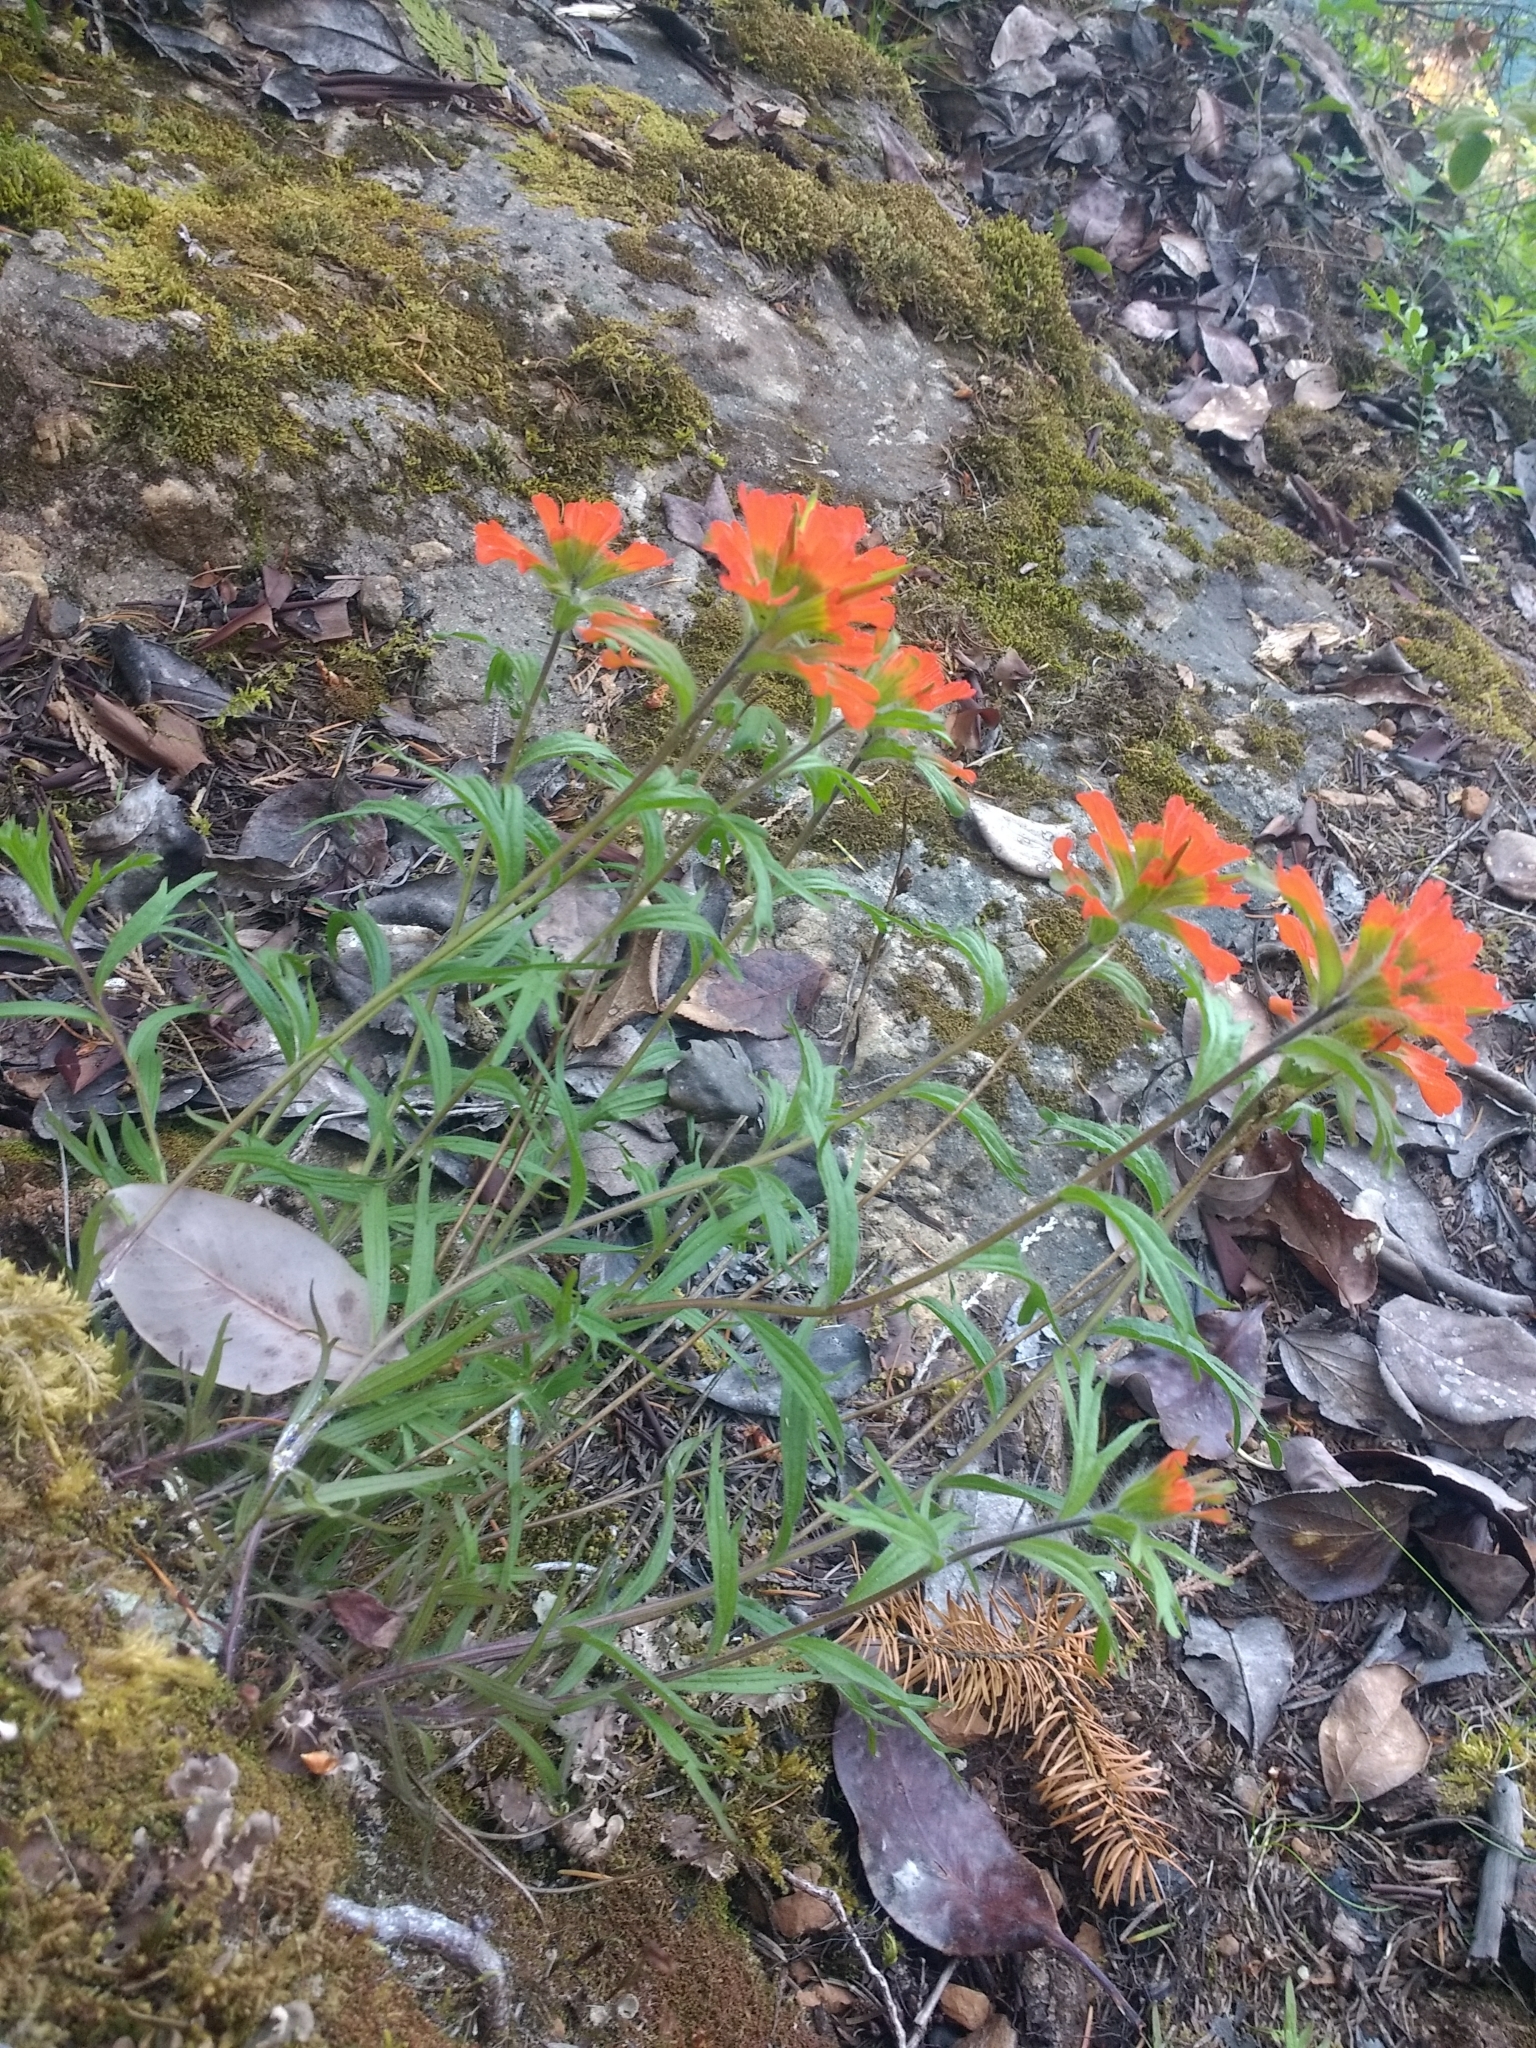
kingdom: Plantae
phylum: Tracheophyta
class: Magnoliopsida
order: Lamiales
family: Orobanchaceae
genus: Castilleja
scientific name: Castilleja hispida
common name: Bristly paintbrush
